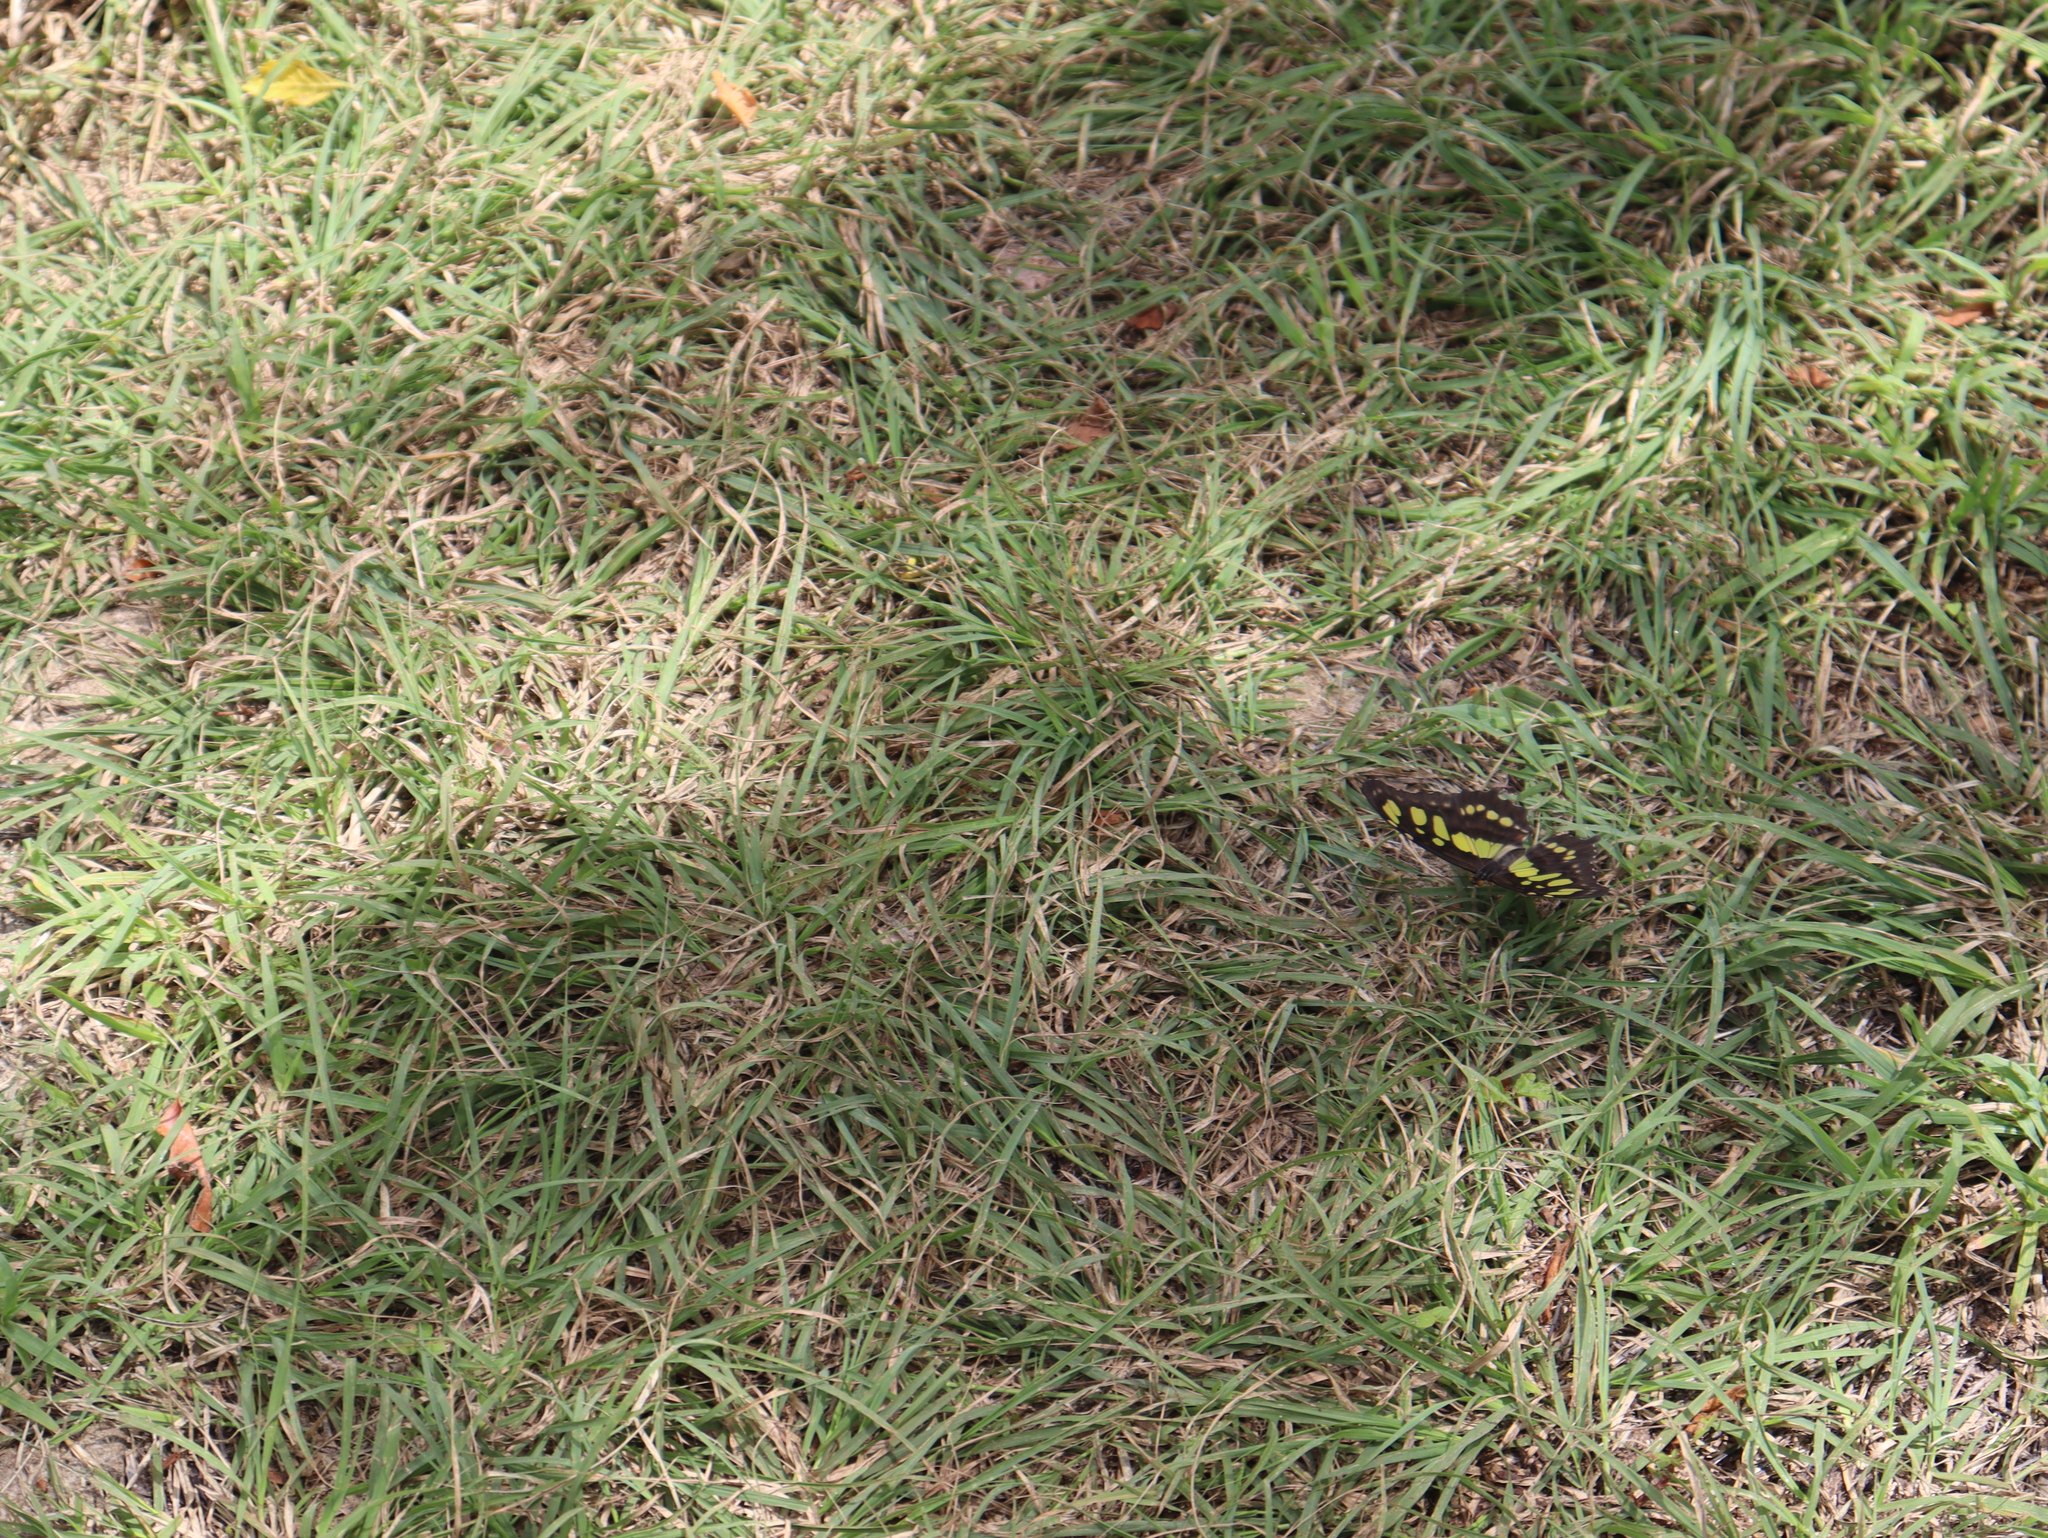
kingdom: Animalia
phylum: Arthropoda
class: Insecta
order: Lepidoptera
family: Nymphalidae
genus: Siproeta
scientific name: Siproeta stelenes
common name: Malachite
